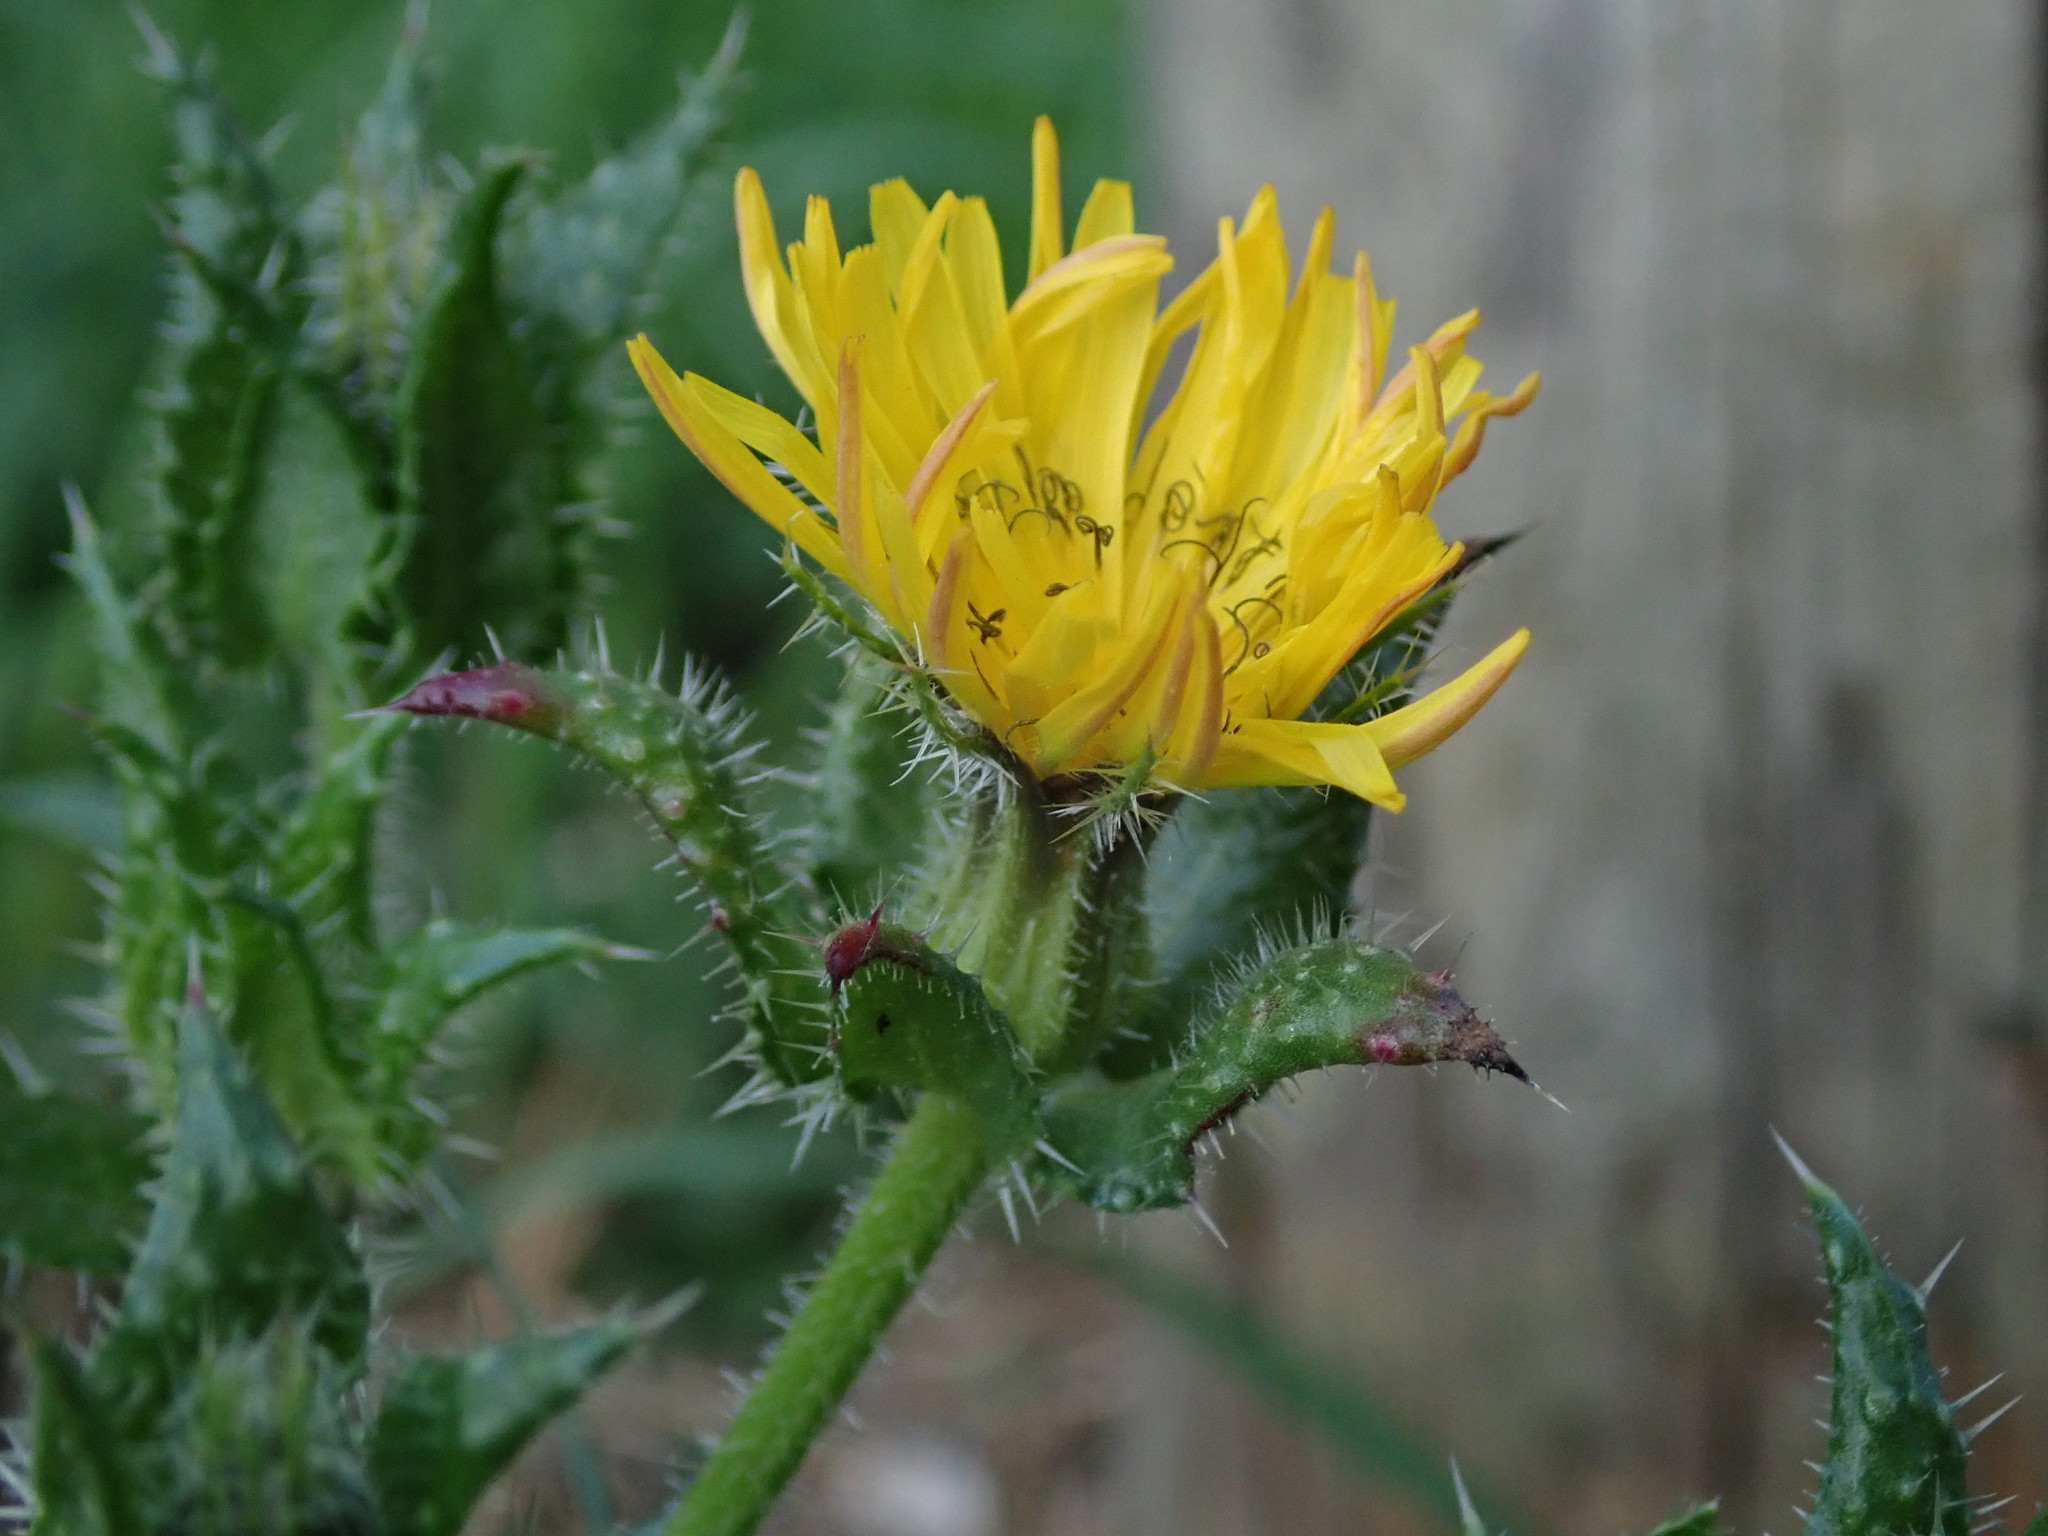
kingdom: Plantae
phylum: Tracheophyta
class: Magnoliopsida
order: Asterales
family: Asteraceae
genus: Helminthotheca
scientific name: Helminthotheca echioides
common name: Ox-tongue
